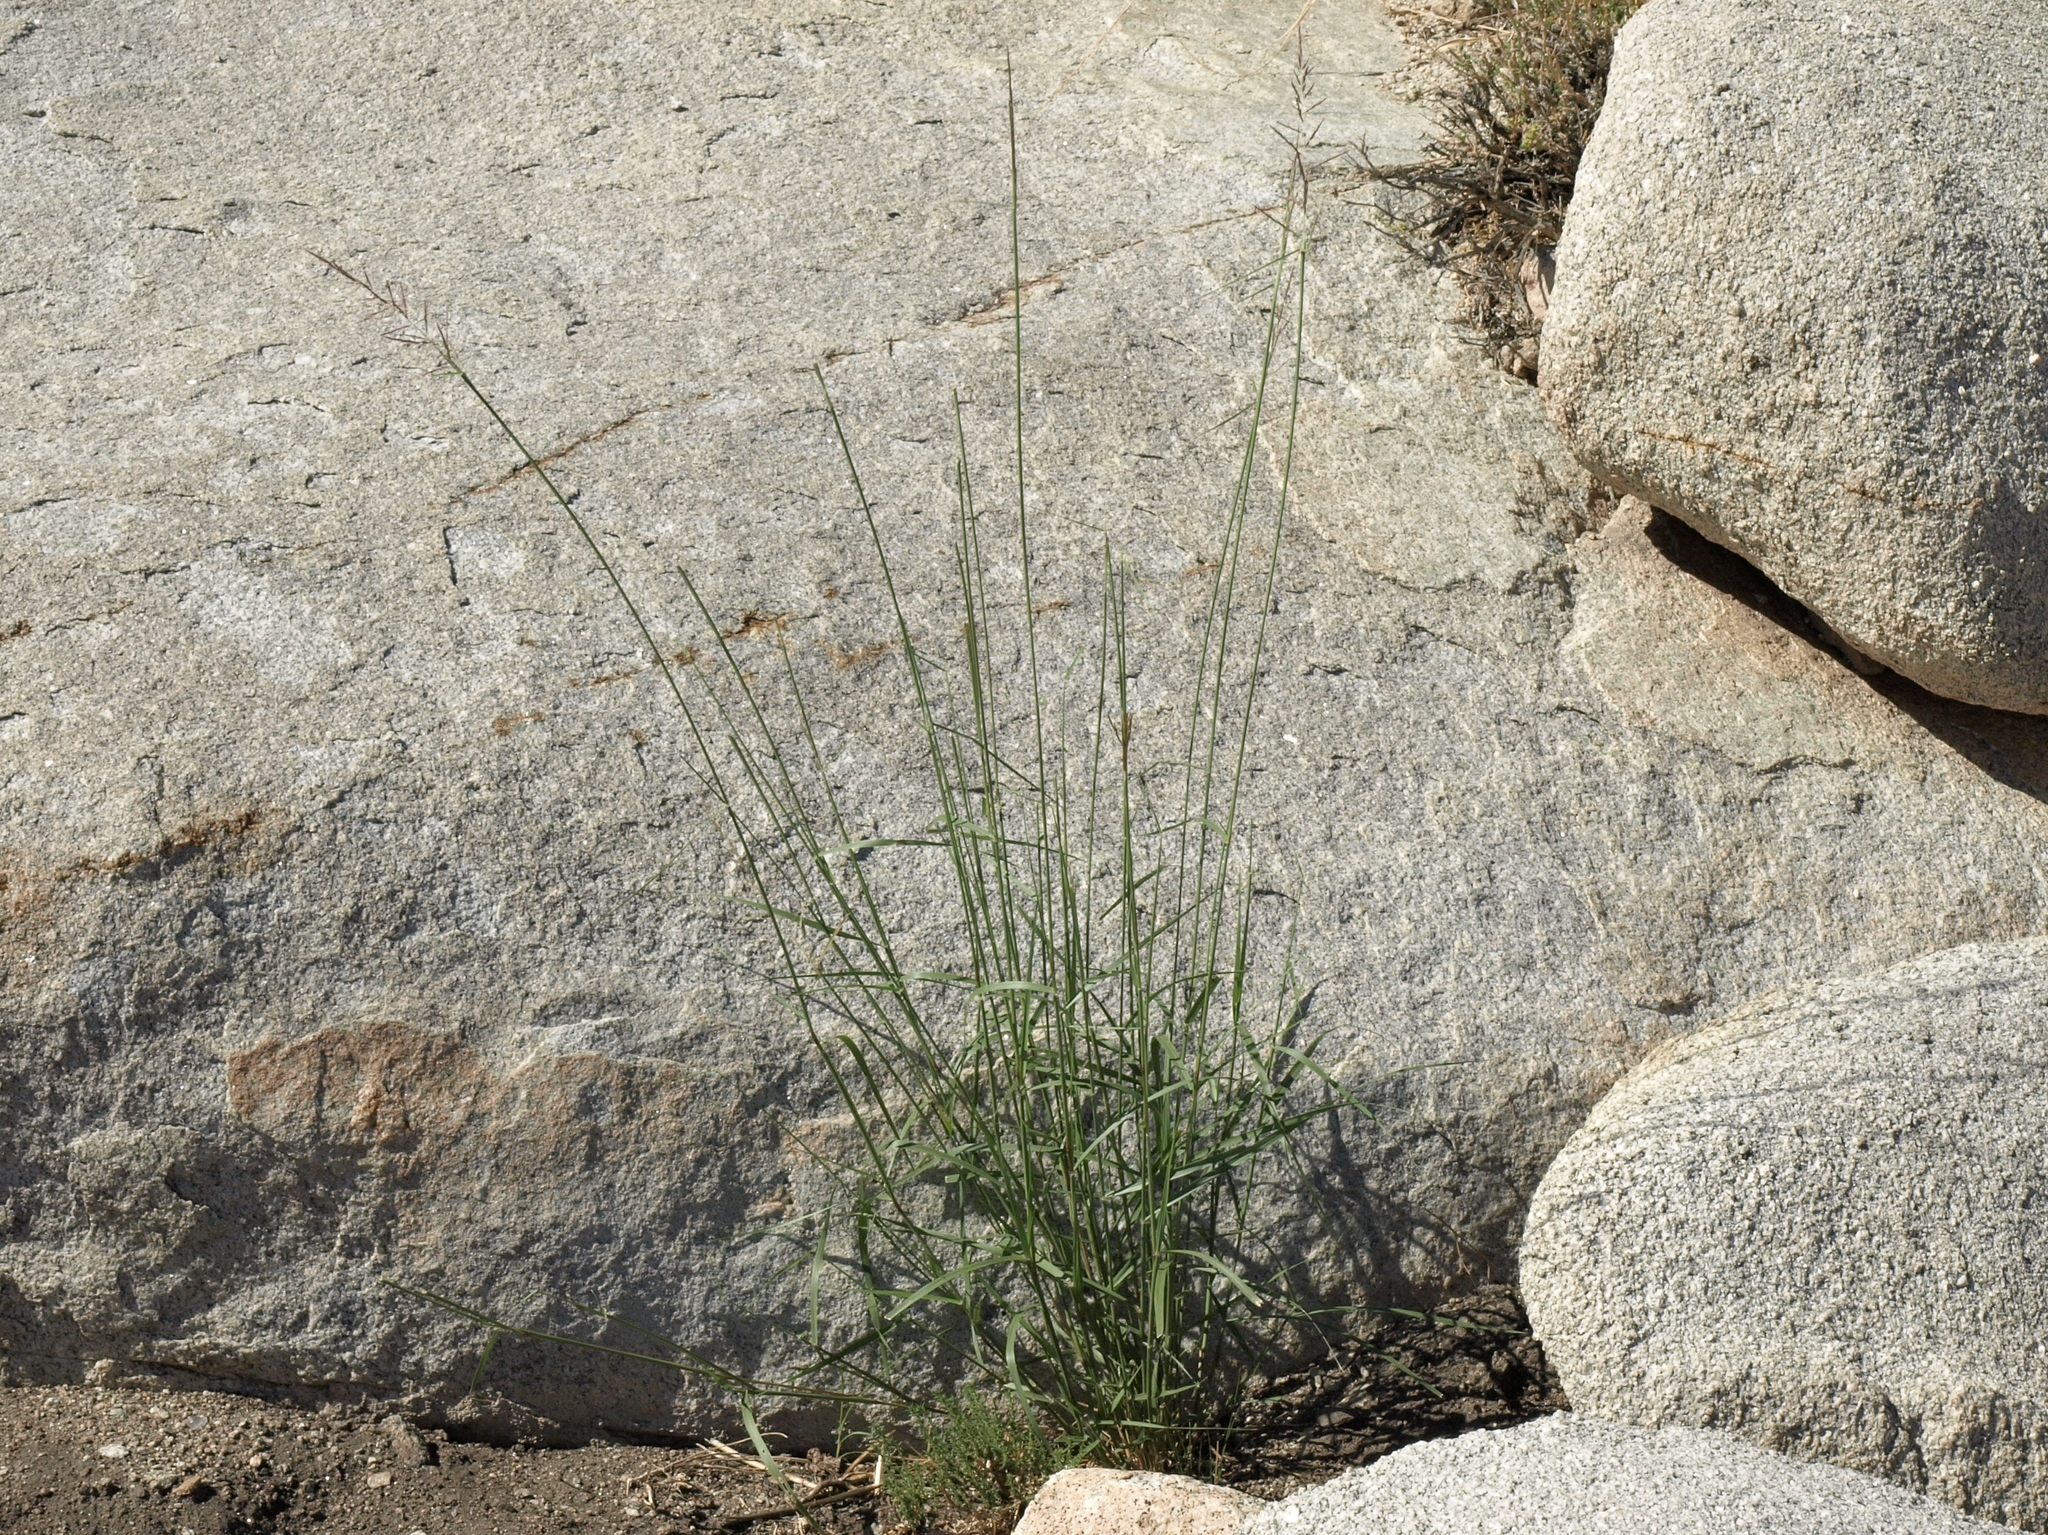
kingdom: Plantae
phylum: Tracheophyta
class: Liliopsida
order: Poales
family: Poaceae
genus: Sporobolus
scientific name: Sporobolus cryptandrus
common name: Sand dropseed
